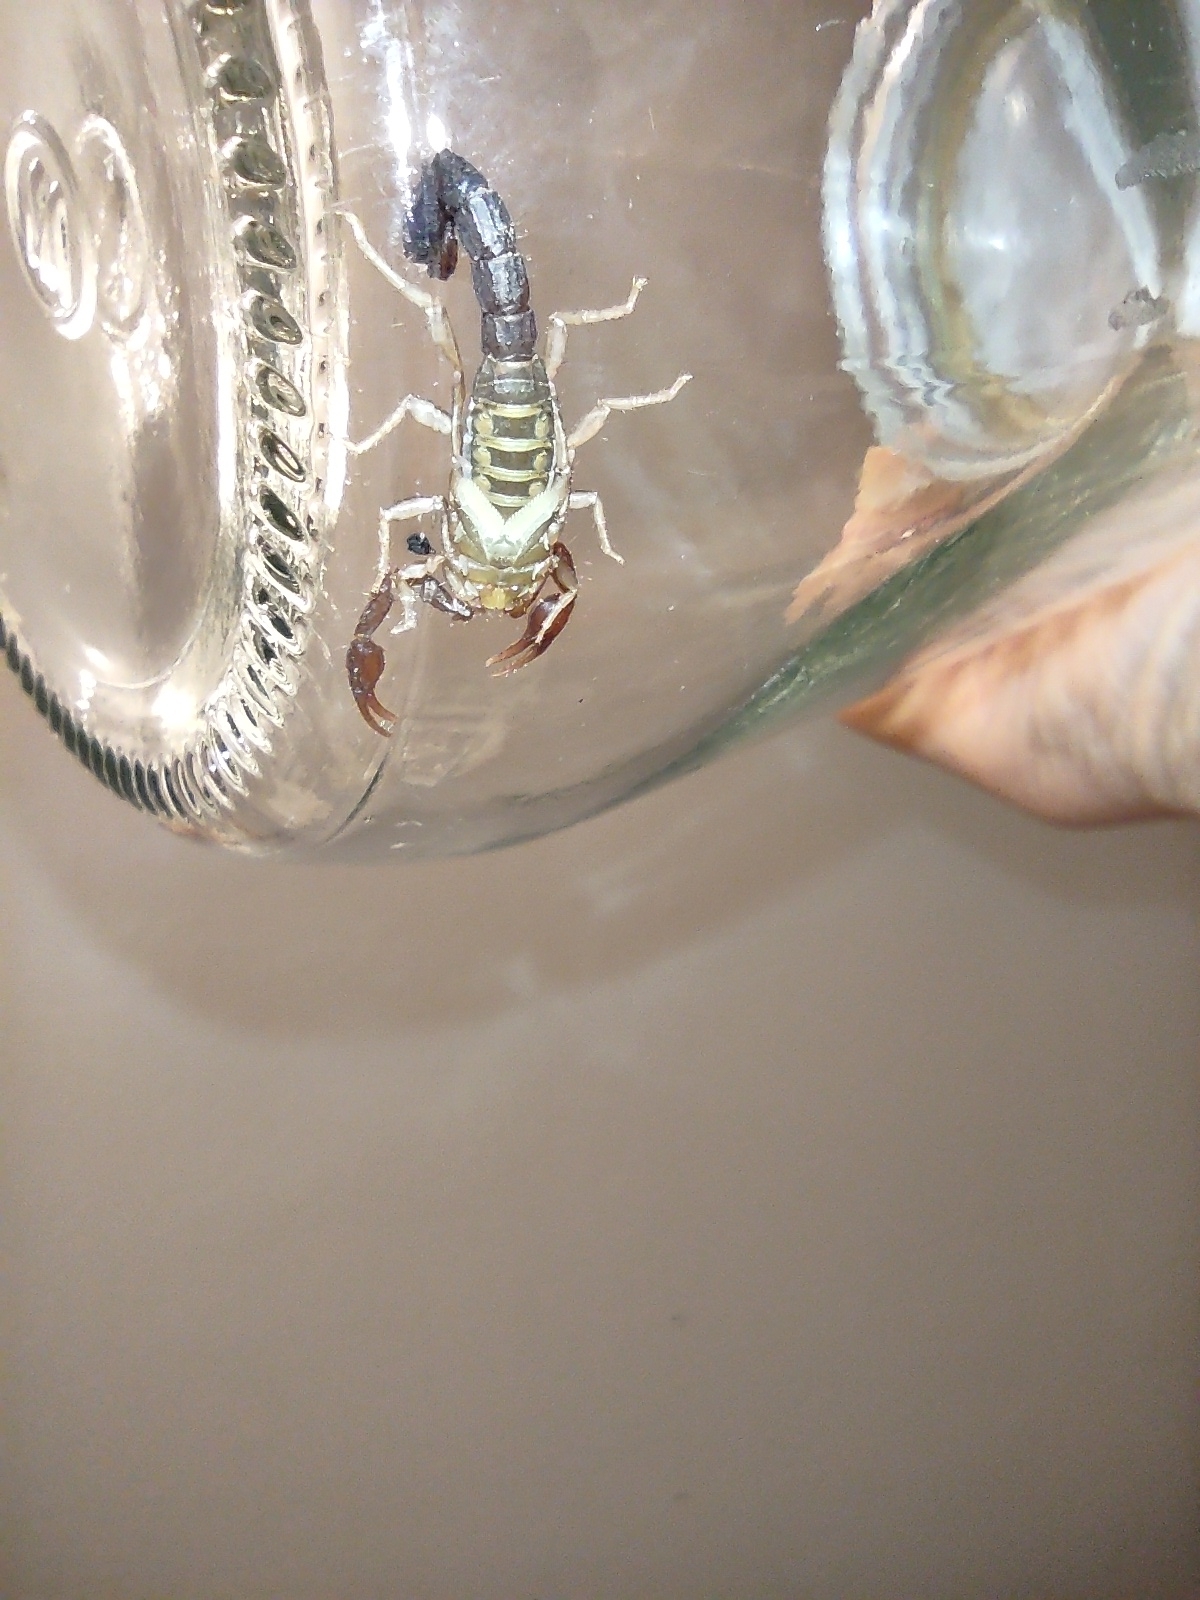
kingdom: Animalia
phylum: Arthropoda
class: Arachnida
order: Scorpiones
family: Vaejovidae
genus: Vaejovis
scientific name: Vaejovis carolinianus
